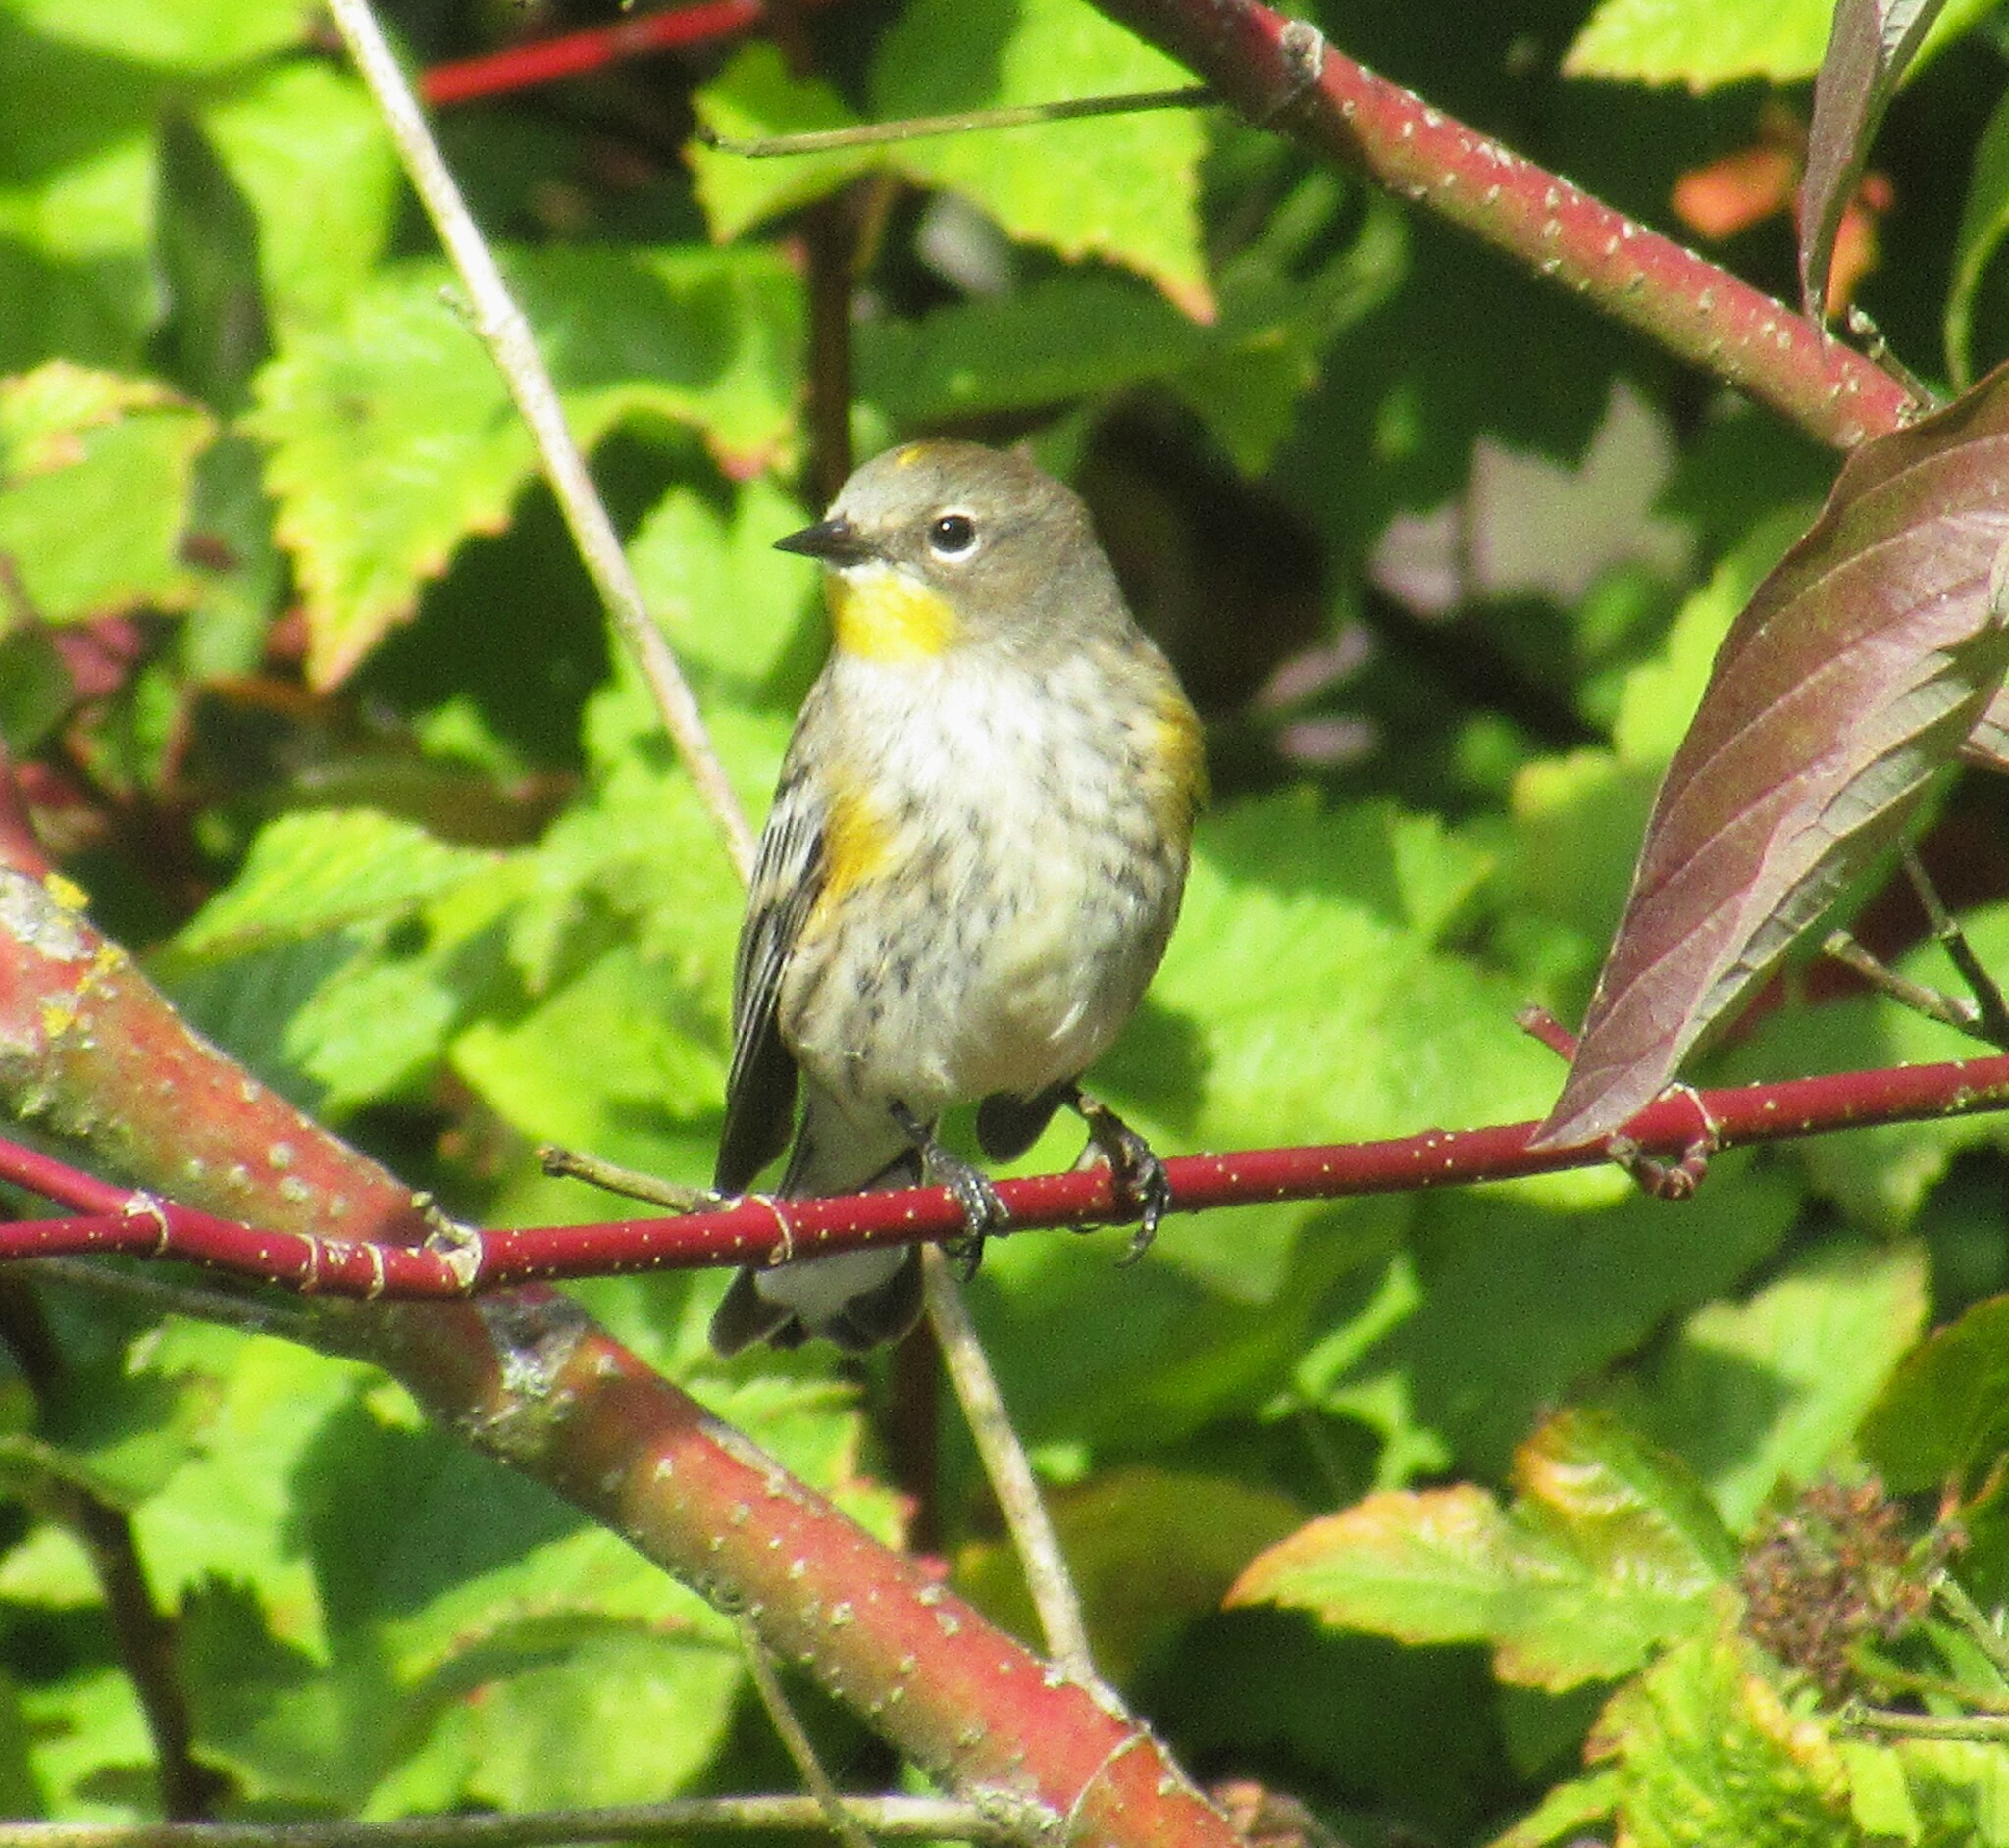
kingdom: Animalia
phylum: Chordata
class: Aves
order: Passeriformes
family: Parulidae
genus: Setophaga
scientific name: Setophaga auduboni
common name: Audubon's warbler
